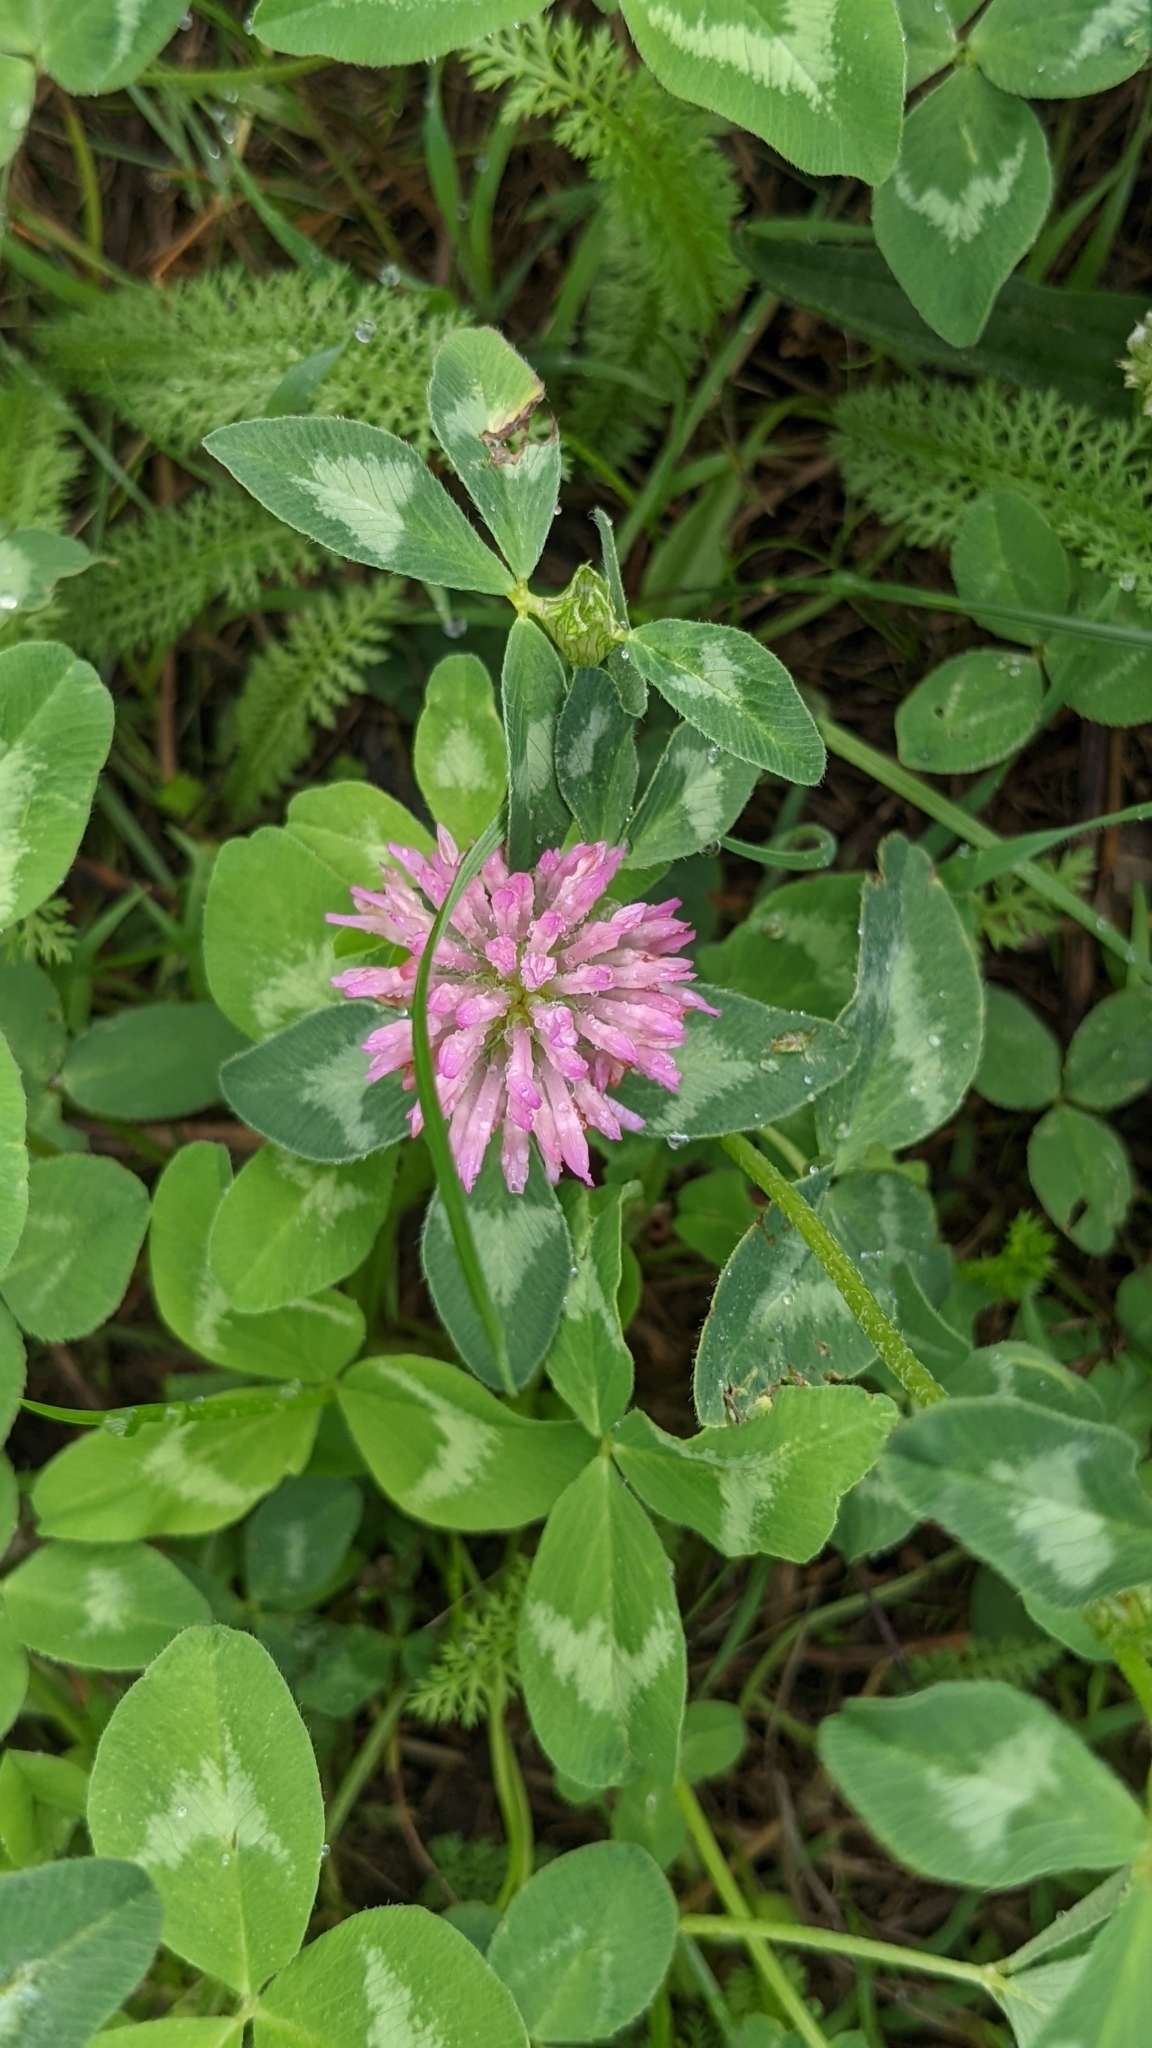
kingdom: Plantae
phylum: Tracheophyta
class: Magnoliopsida
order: Fabales
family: Fabaceae
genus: Trifolium
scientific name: Trifolium pratense
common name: Red clover
